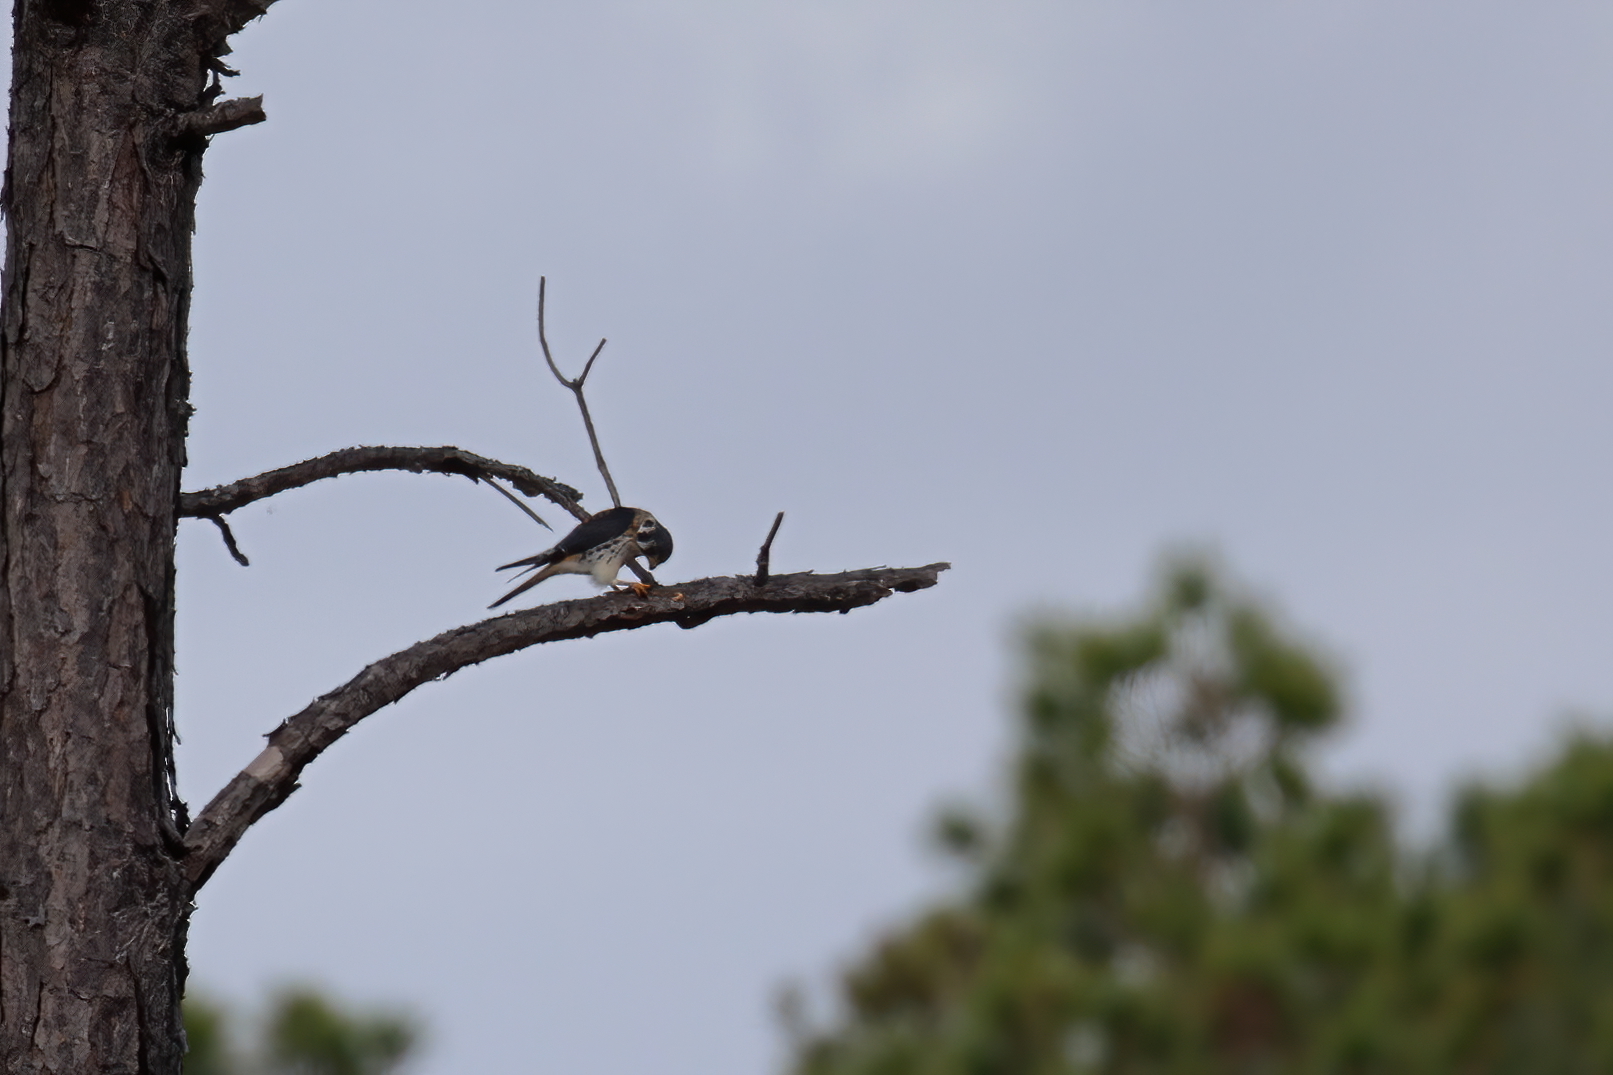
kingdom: Animalia
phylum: Chordata
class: Aves
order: Falconiformes
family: Falconidae
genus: Falco
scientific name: Falco sparverius
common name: American kestrel
